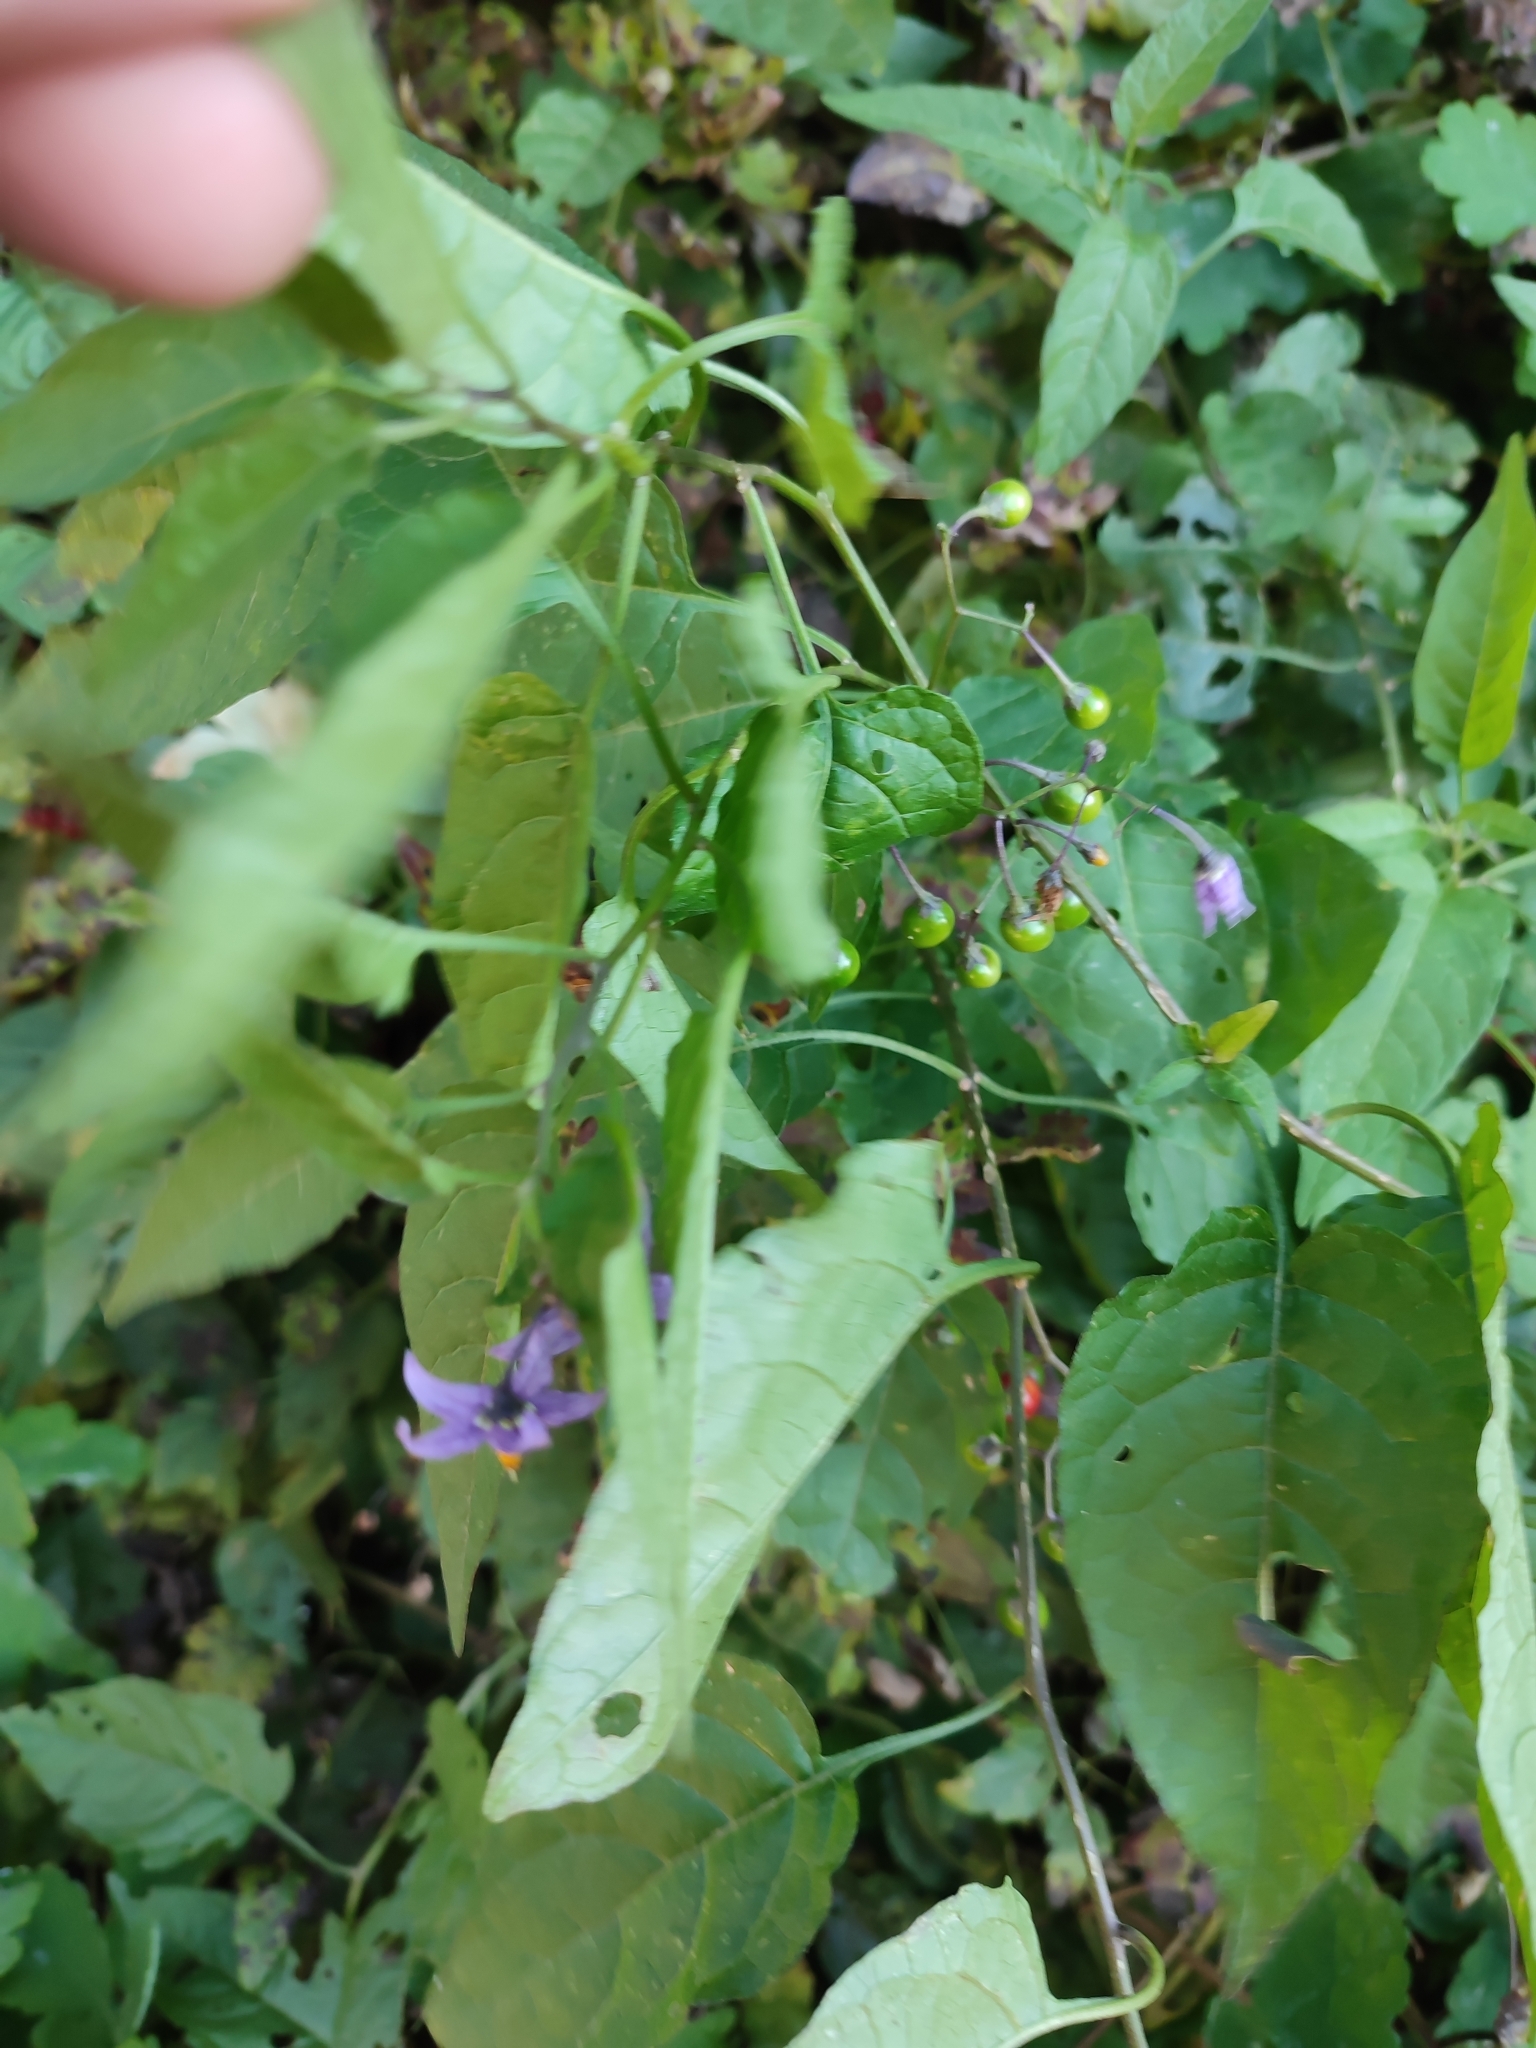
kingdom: Plantae
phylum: Tracheophyta
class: Magnoliopsida
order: Solanales
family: Solanaceae
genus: Solanum
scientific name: Solanum dulcamara
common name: Climbing nightshade
